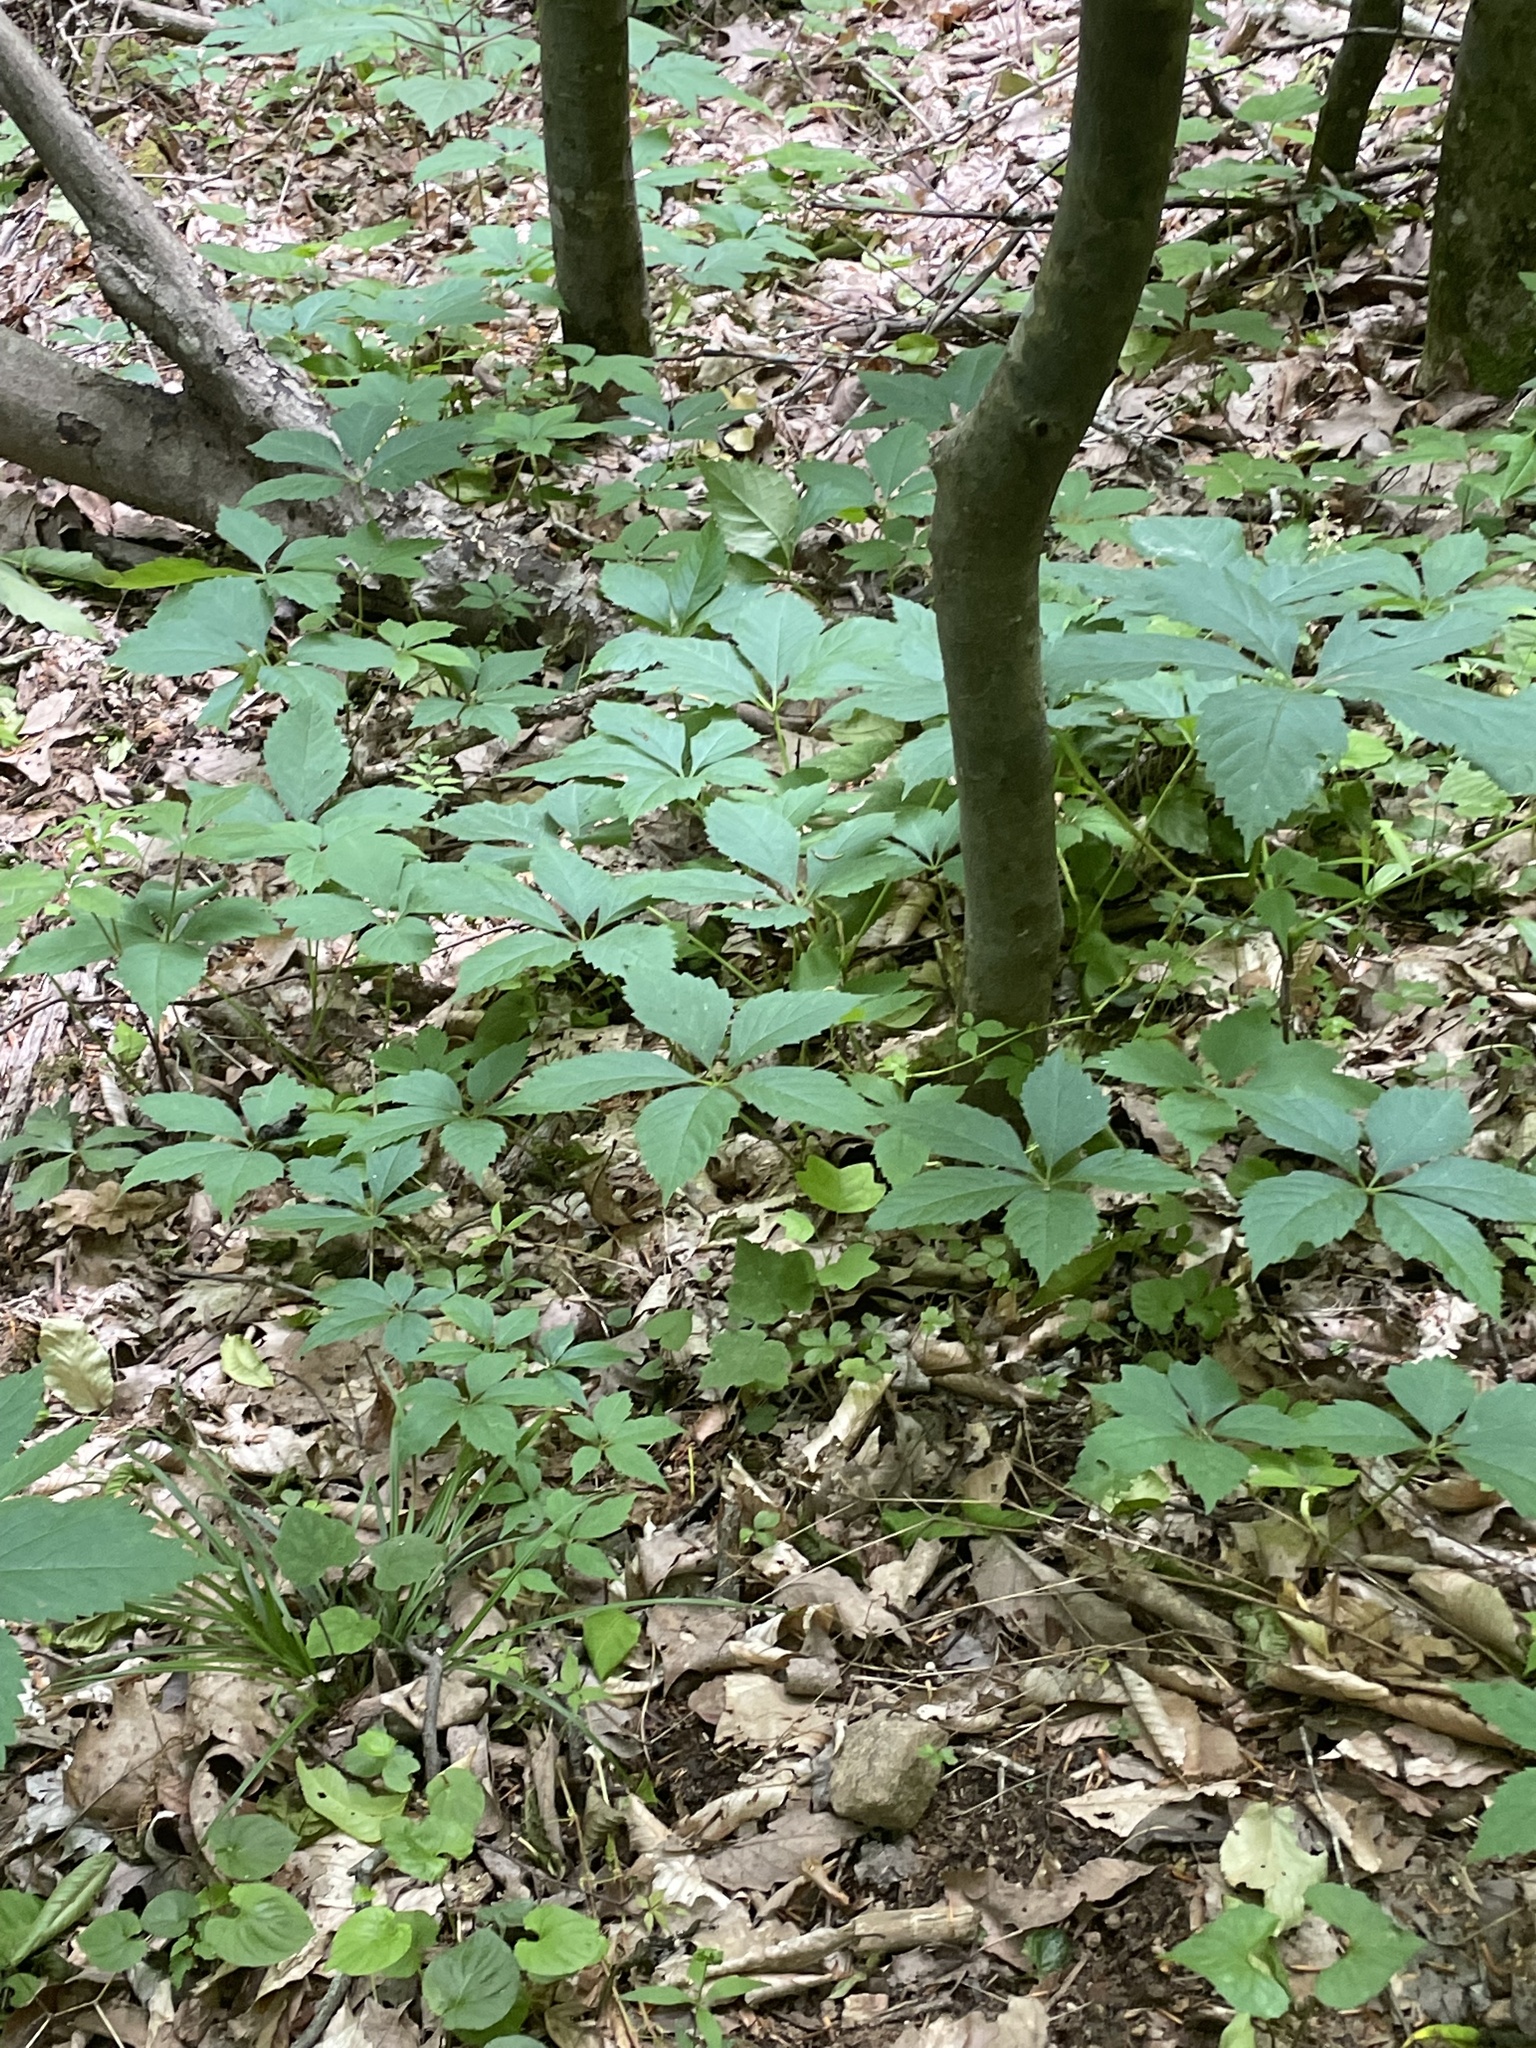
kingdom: Plantae
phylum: Tracheophyta
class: Magnoliopsida
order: Vitales
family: Vitaceae
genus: Parthenocissus
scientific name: Parthenocissus quinquefolia
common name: Virginia-creeper
